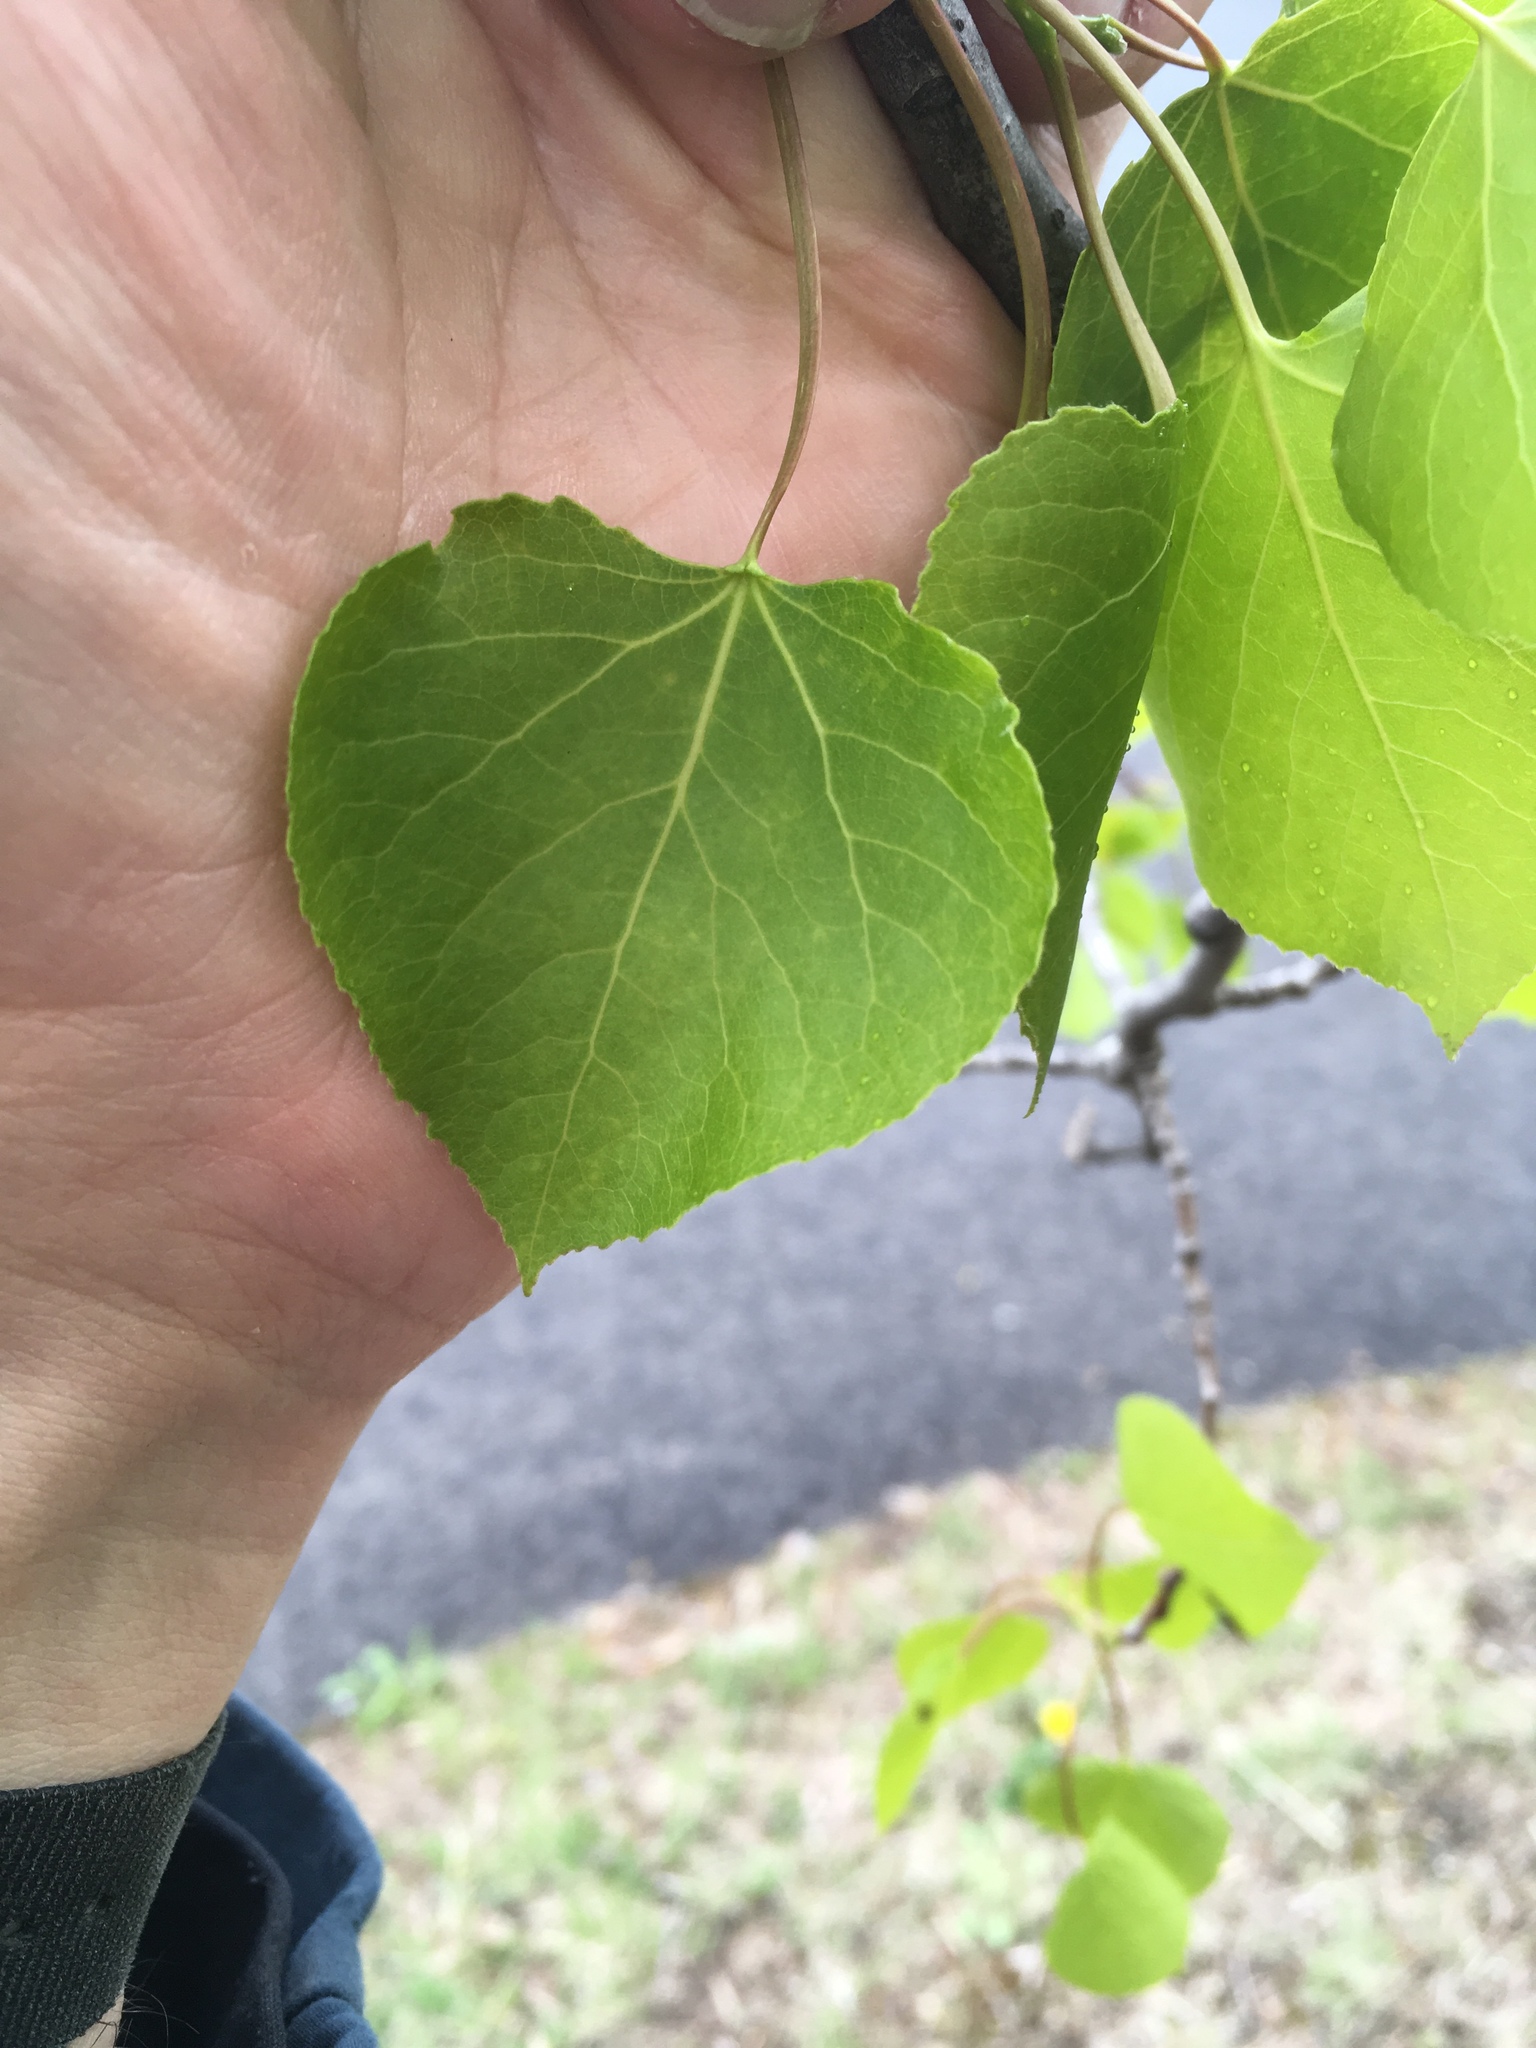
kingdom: Plantae
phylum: Tracheophyta
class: Magnoliopsida
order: Malpighiales
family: Salicaceae
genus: Populus
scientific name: Populus tremuloides
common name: Quaking aspen
